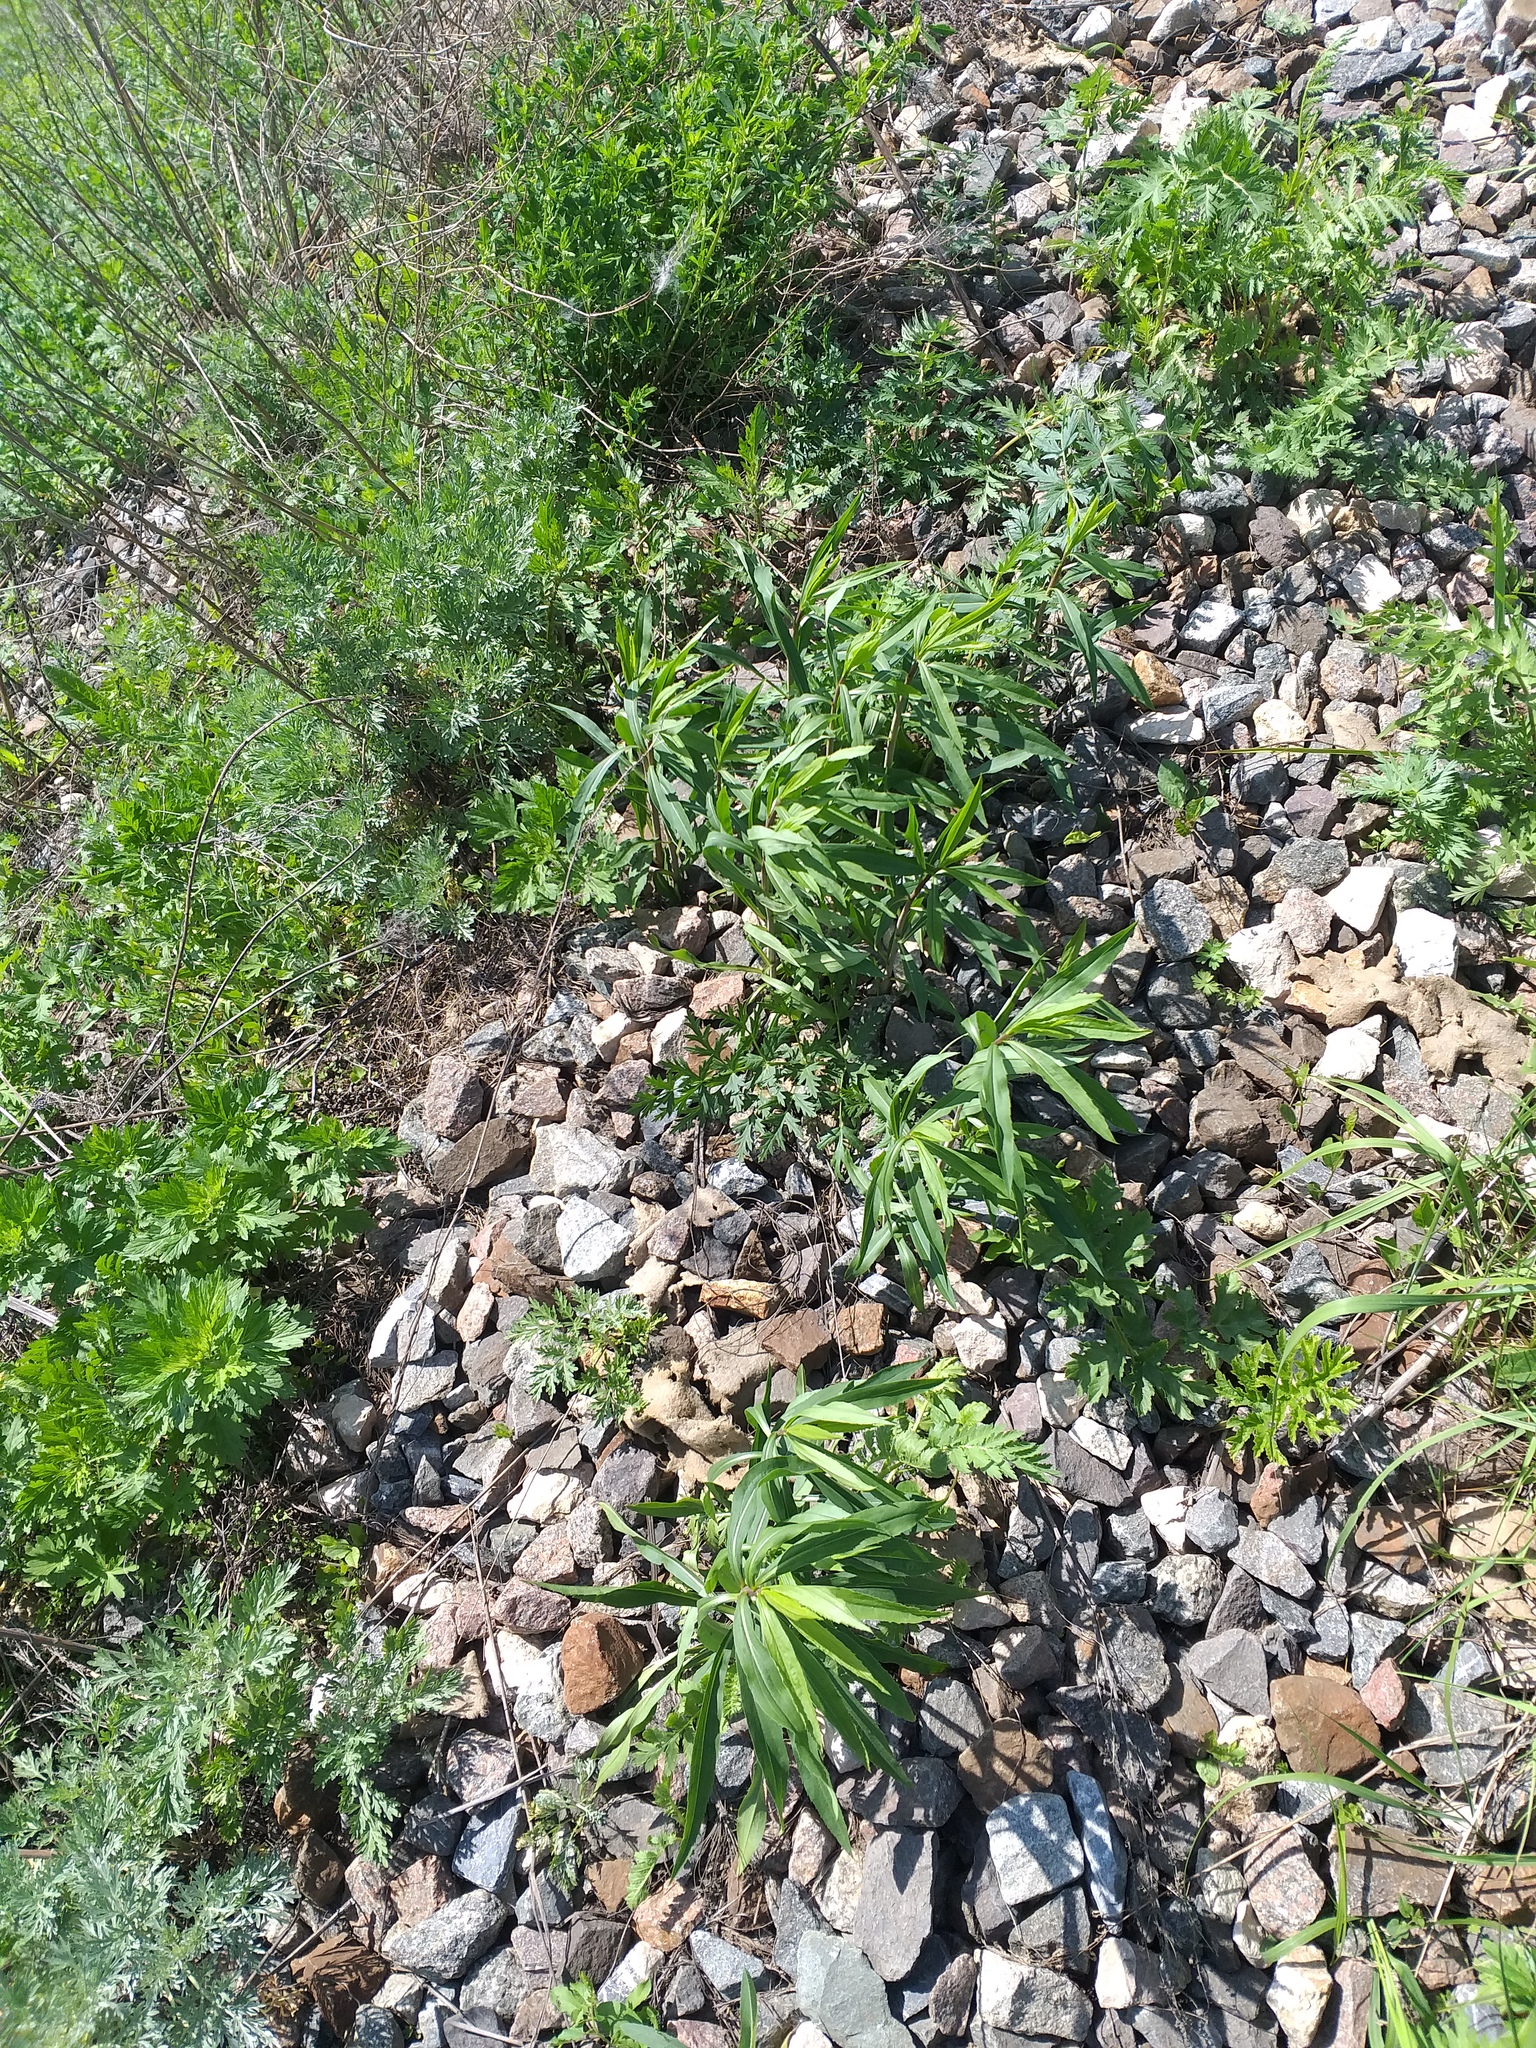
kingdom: Plantae
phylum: Tracheophyta
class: Magnoliopsida
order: Asterales
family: Asteraceae
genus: Solidago
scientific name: Solidago gigantea
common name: Giant goldenrod
